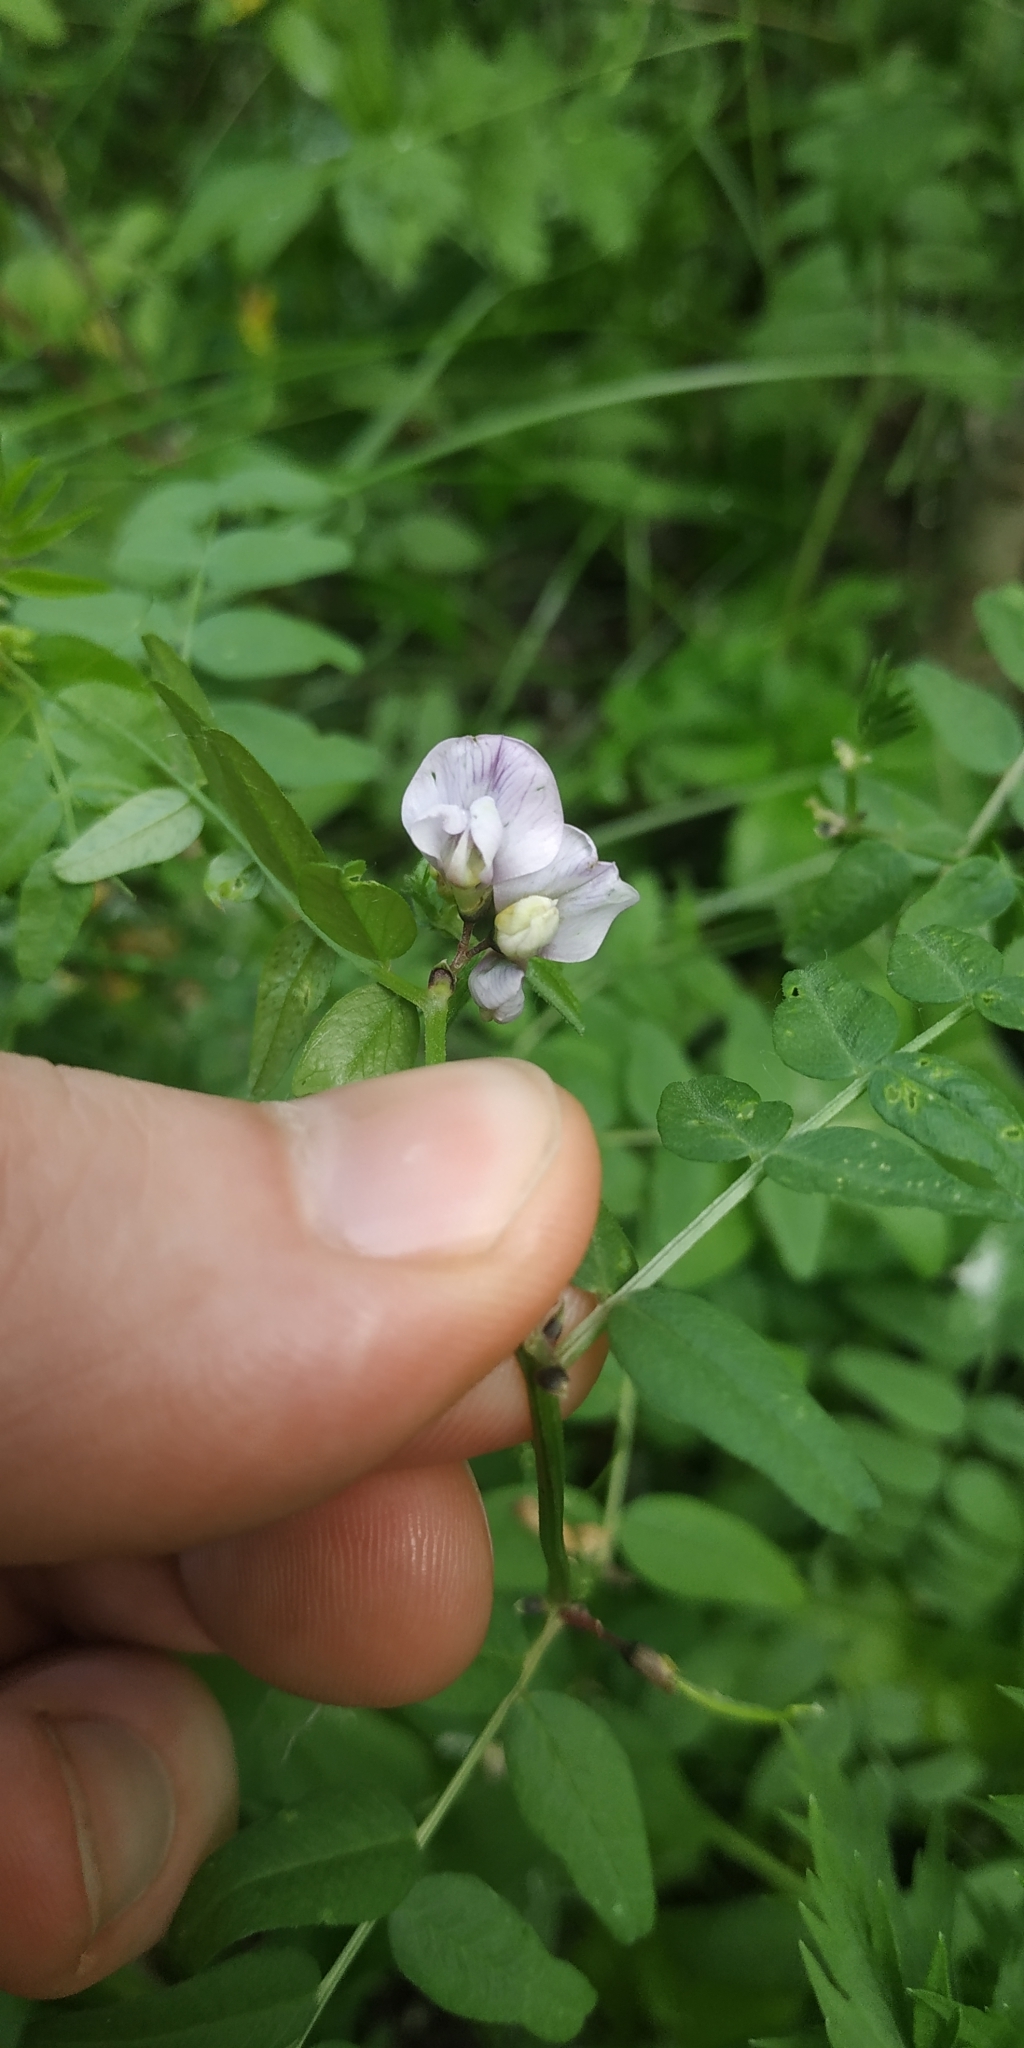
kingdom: Plantae
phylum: Tracheophyta
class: Magnoliopsida
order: Fabales
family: Fabaceae
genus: Vicia
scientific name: Vicia sepium
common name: Bush vetch
